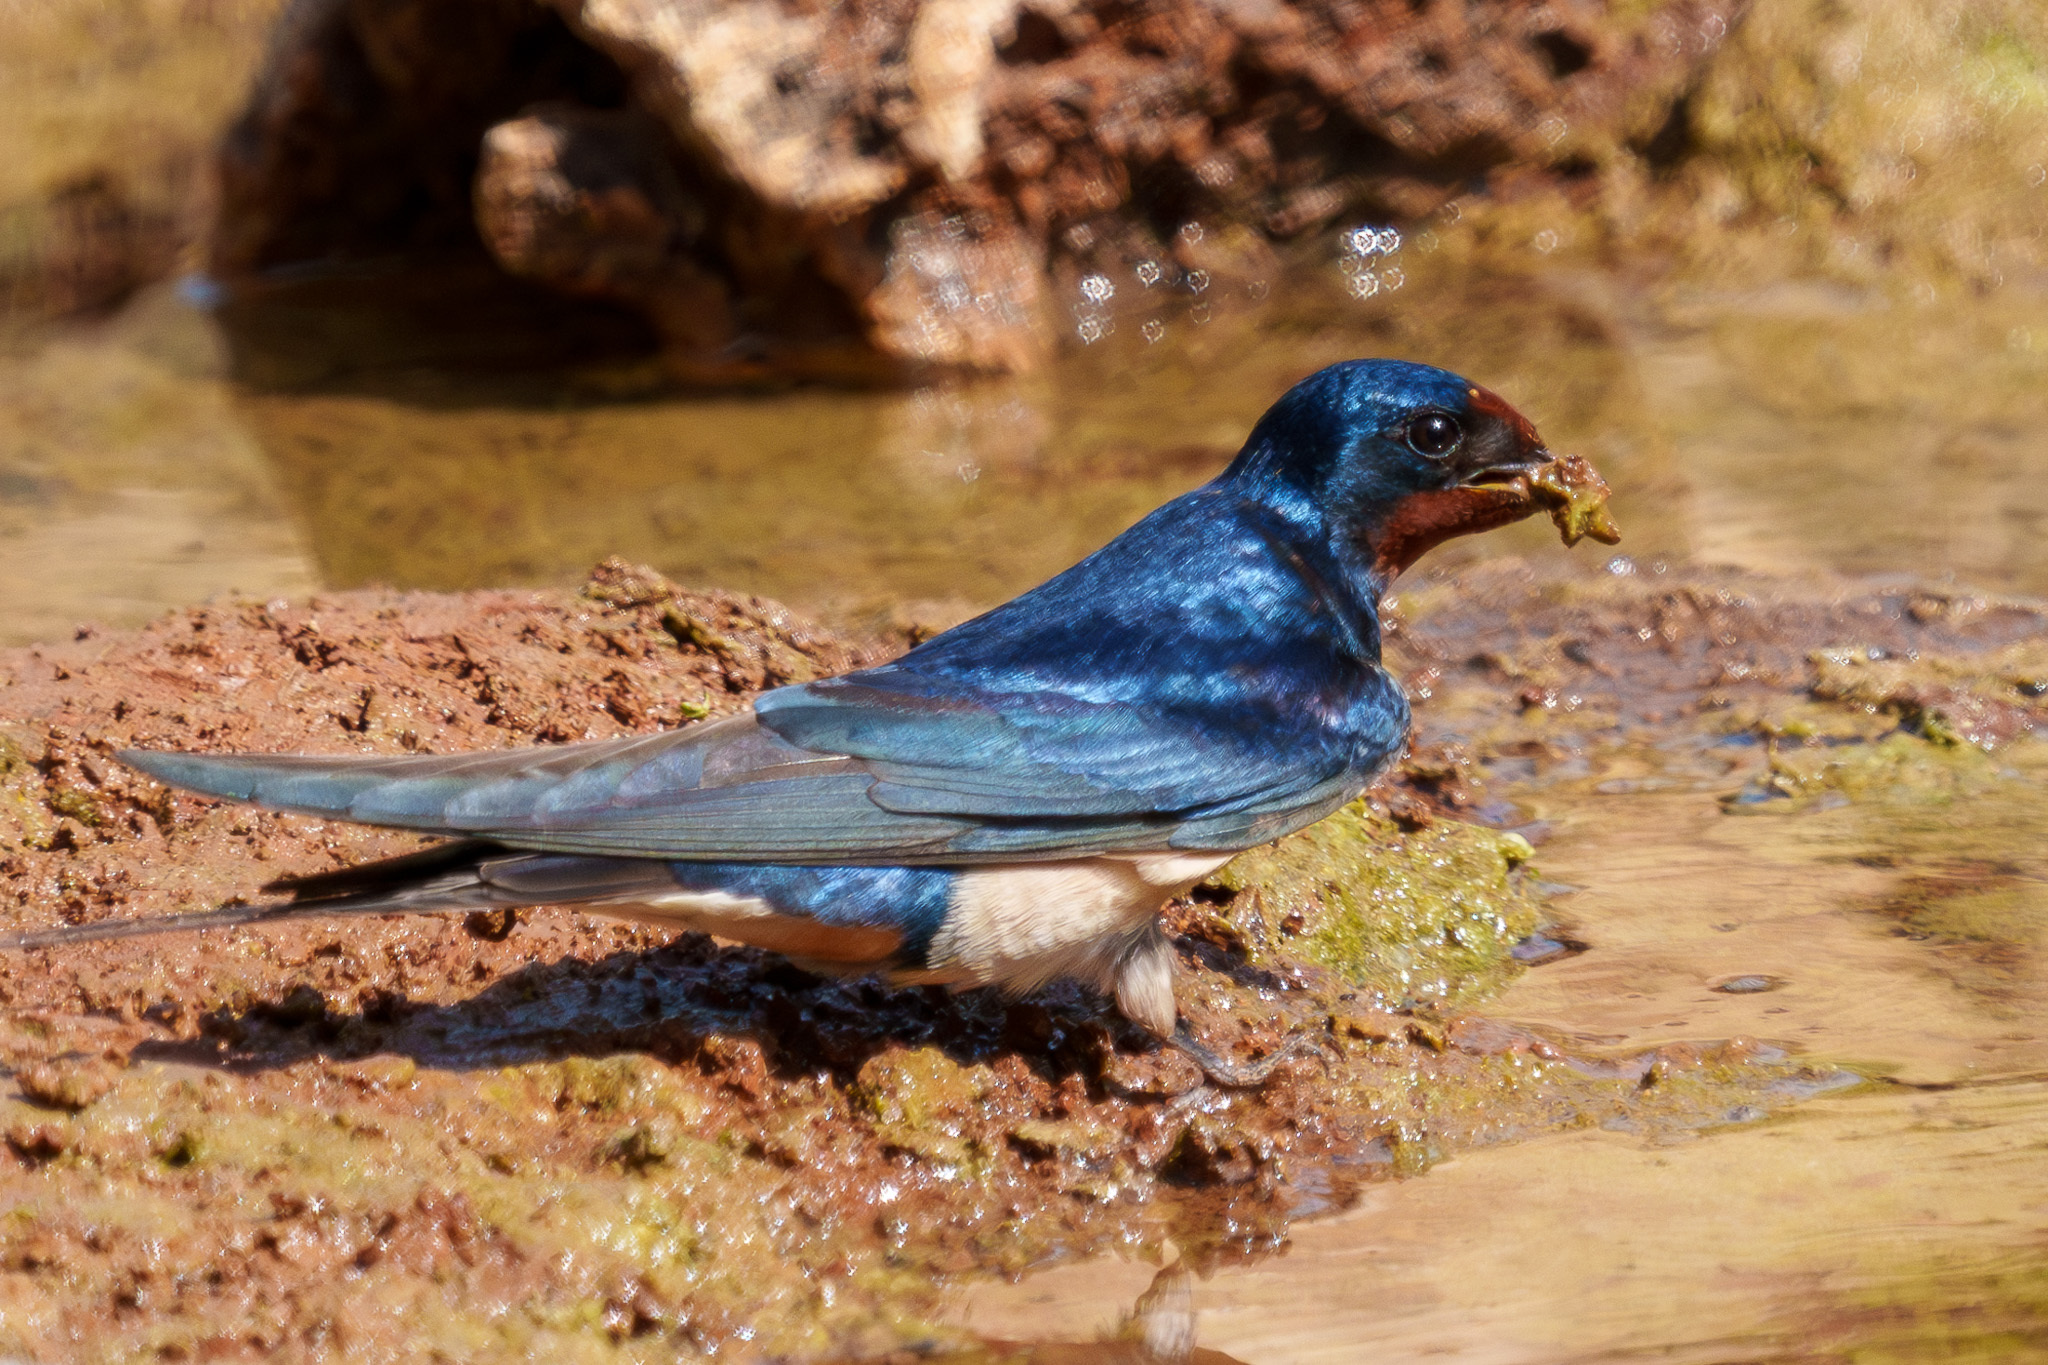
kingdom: Animalia
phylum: Chordata
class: Aves
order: Passeriformes
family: Hirundinidae
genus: Hirundo
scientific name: Hirundo rustica
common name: Barn swallow
